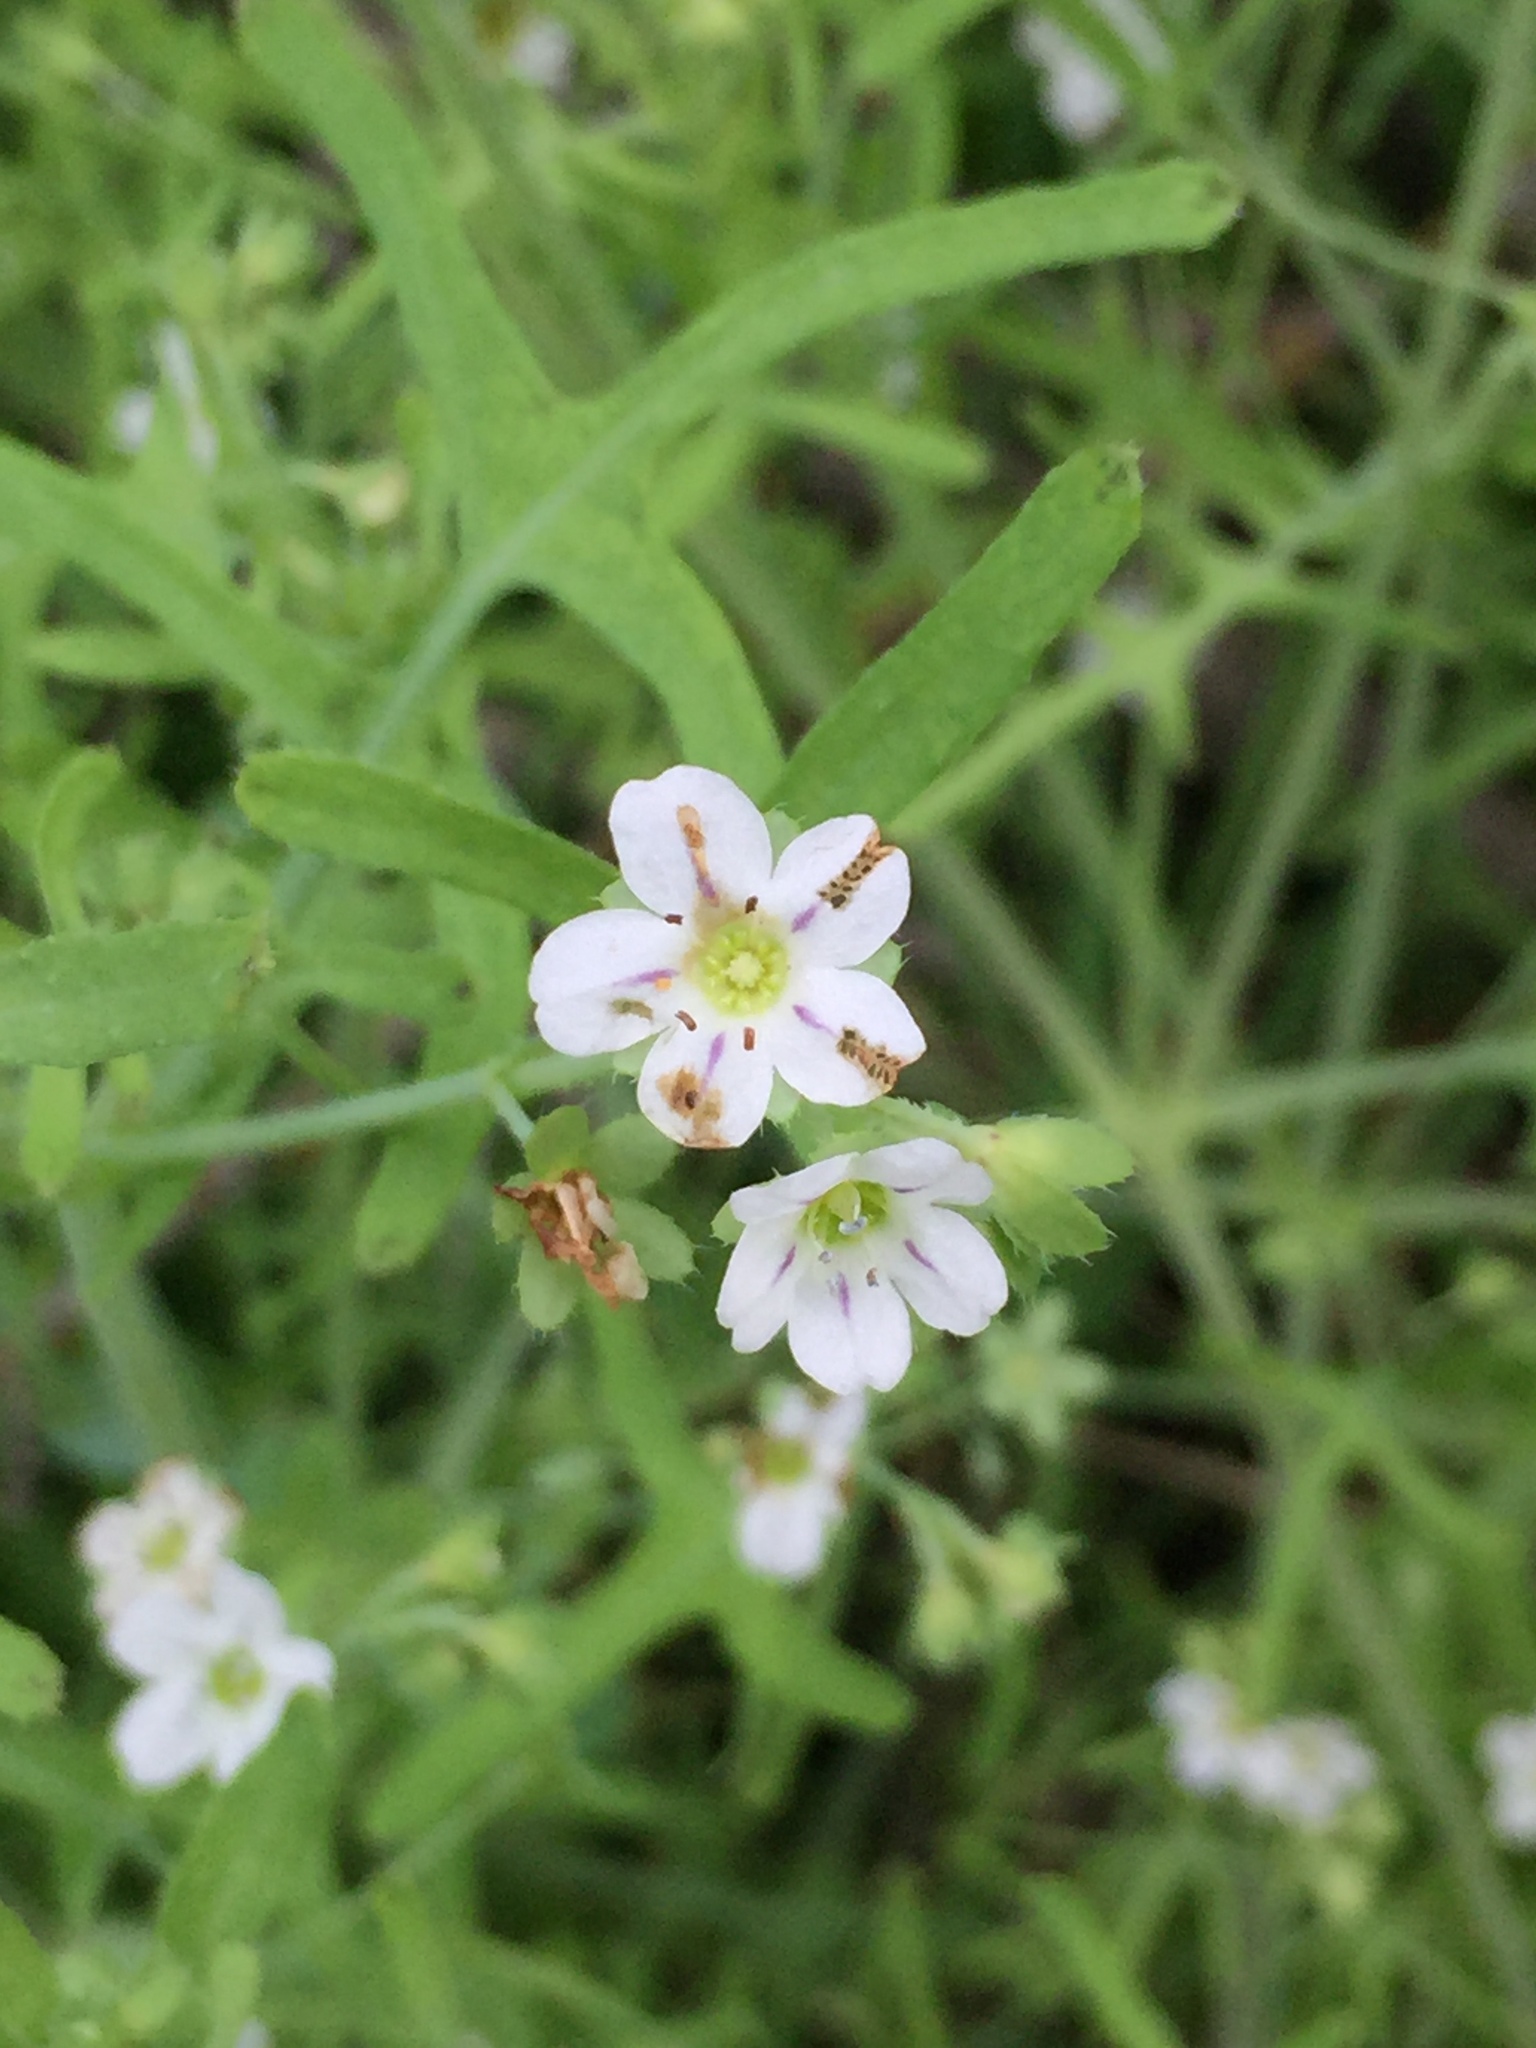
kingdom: Plantae
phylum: Tracheophyta
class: Magnoliopsida
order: Boraginales
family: Hydrophyllaceae
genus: Pholistoma
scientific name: Pholistoma membranaceum
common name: White fiesta-flower
